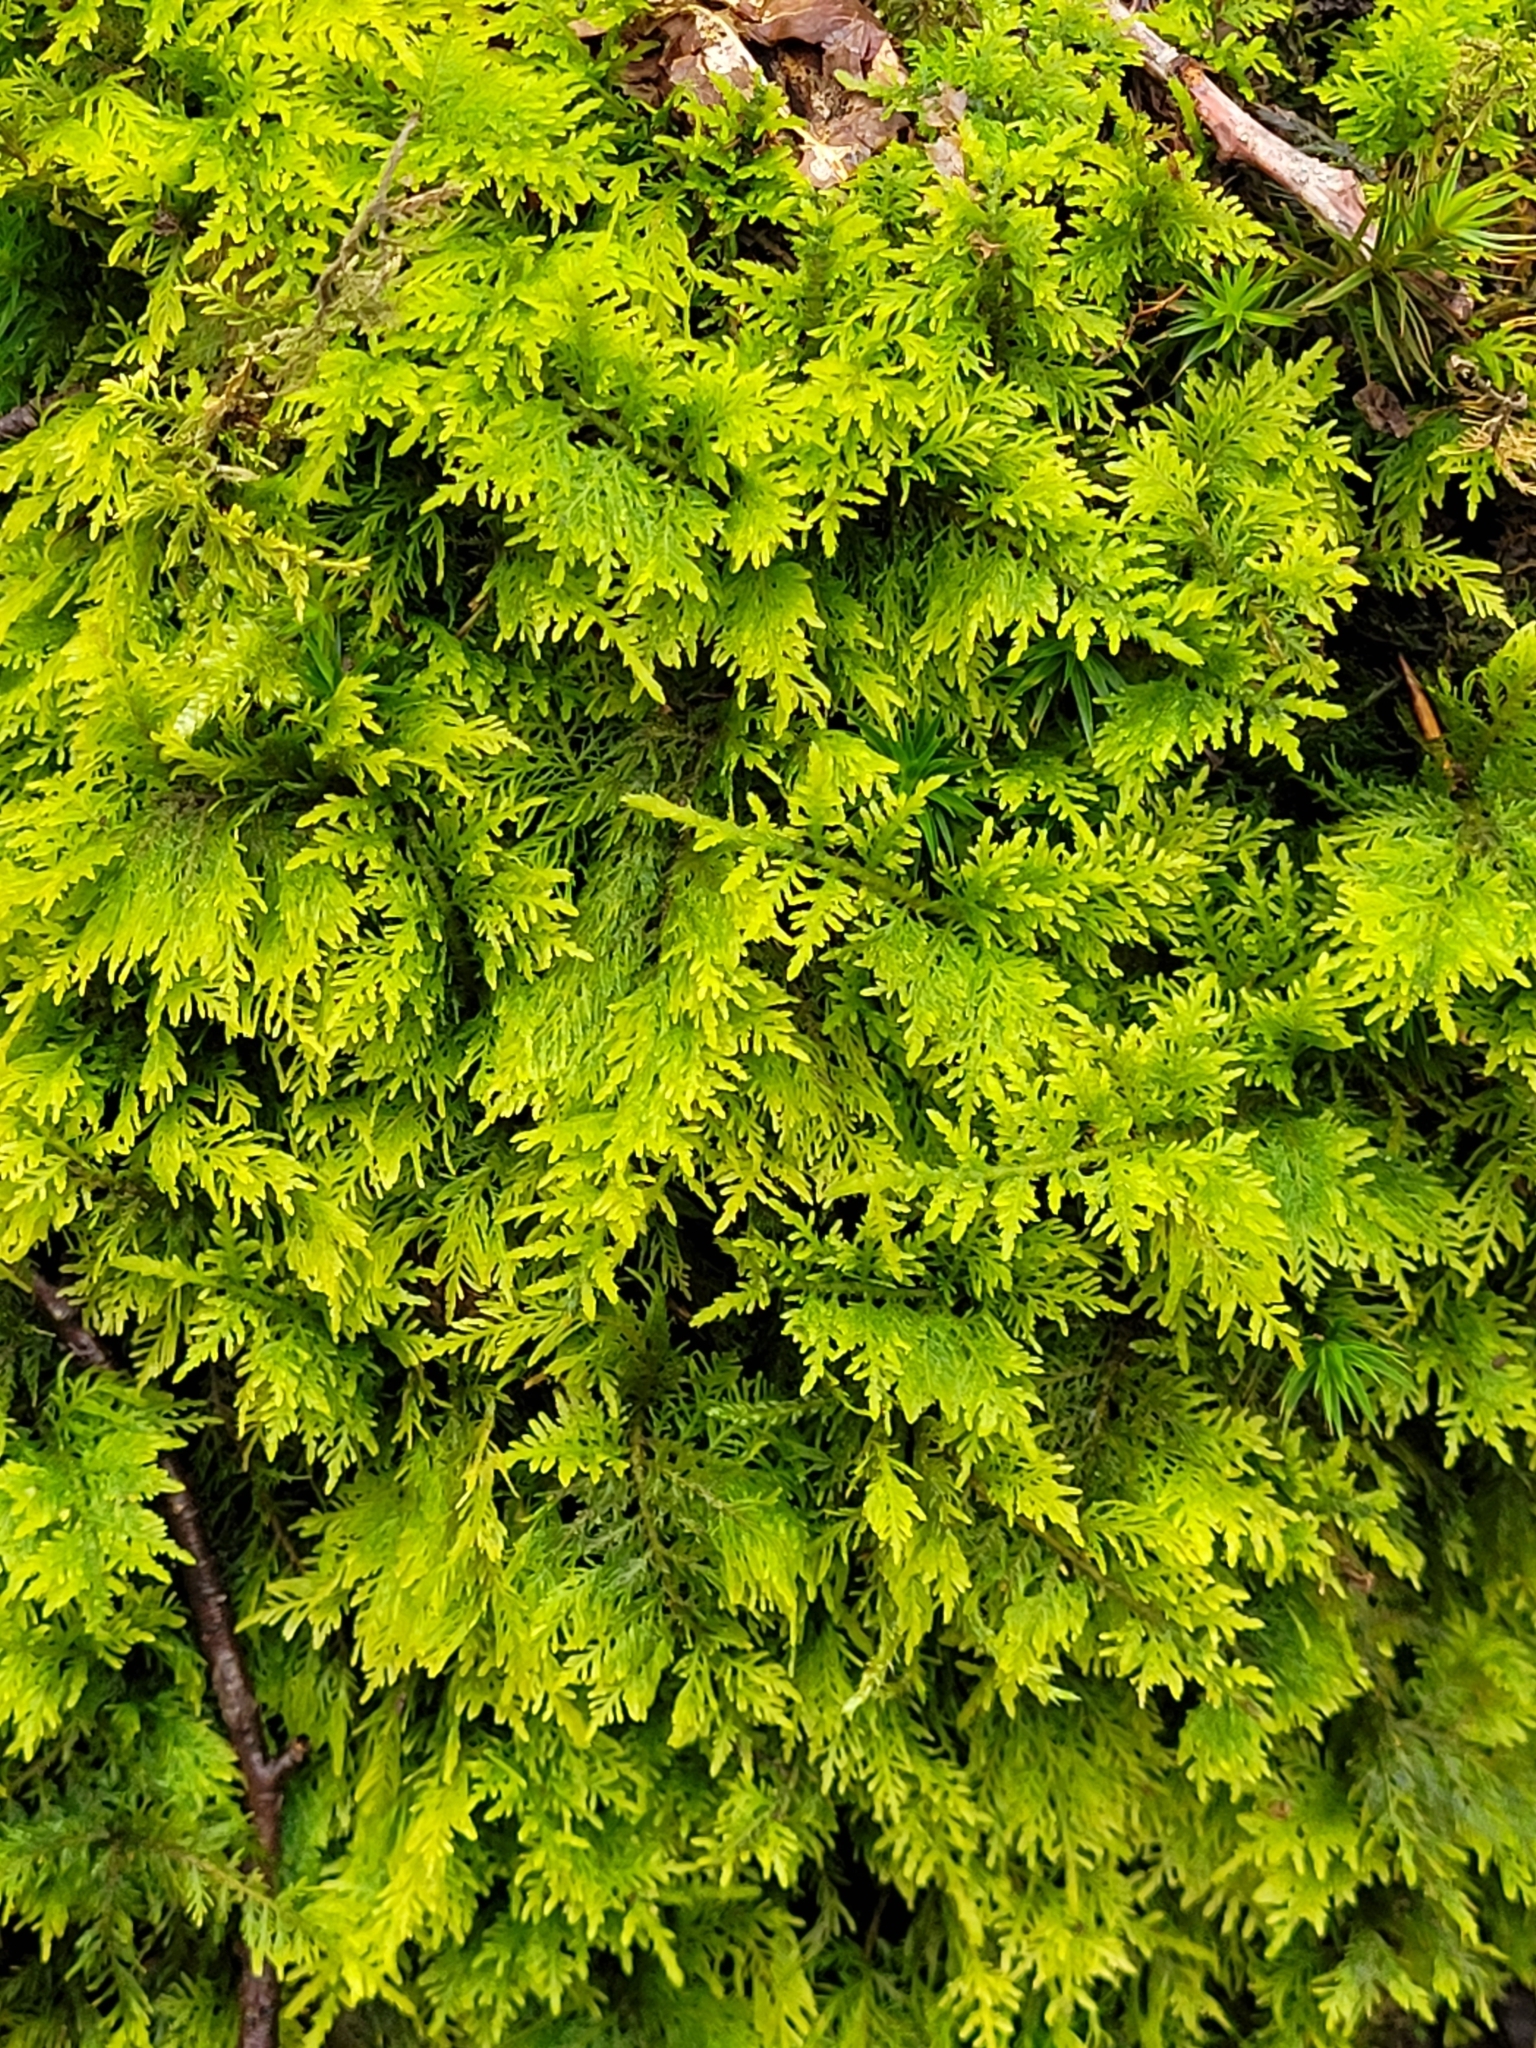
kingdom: Plantae
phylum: Bryophyta
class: Bryopsida
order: Hypnales
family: Thuidiaceae
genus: Thuidium
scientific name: Thuidium tamariscinum
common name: Common tamarisk-moss
